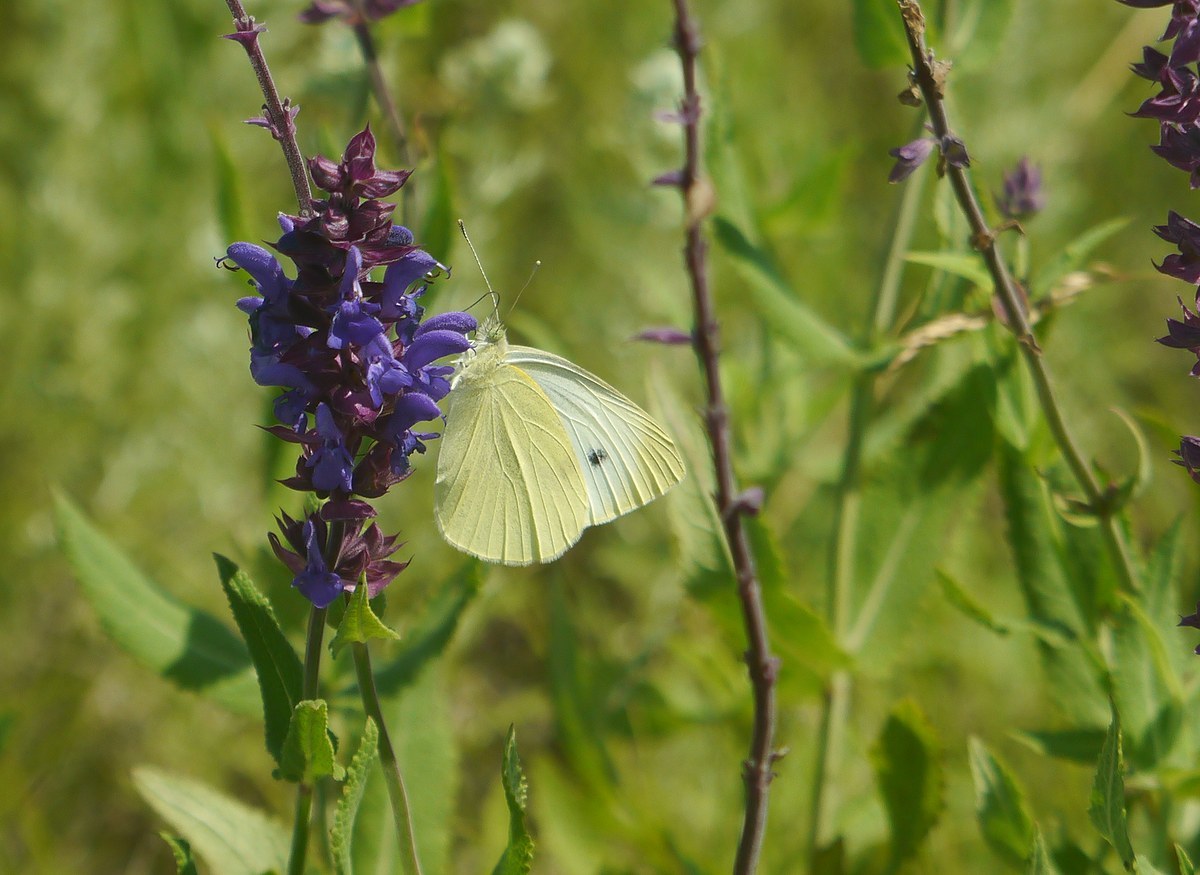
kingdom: Animalia
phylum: Arthropoda
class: Insecta
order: Lepidoptera
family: Pieridae
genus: Pieris
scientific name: Pieris rapae
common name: Small white
